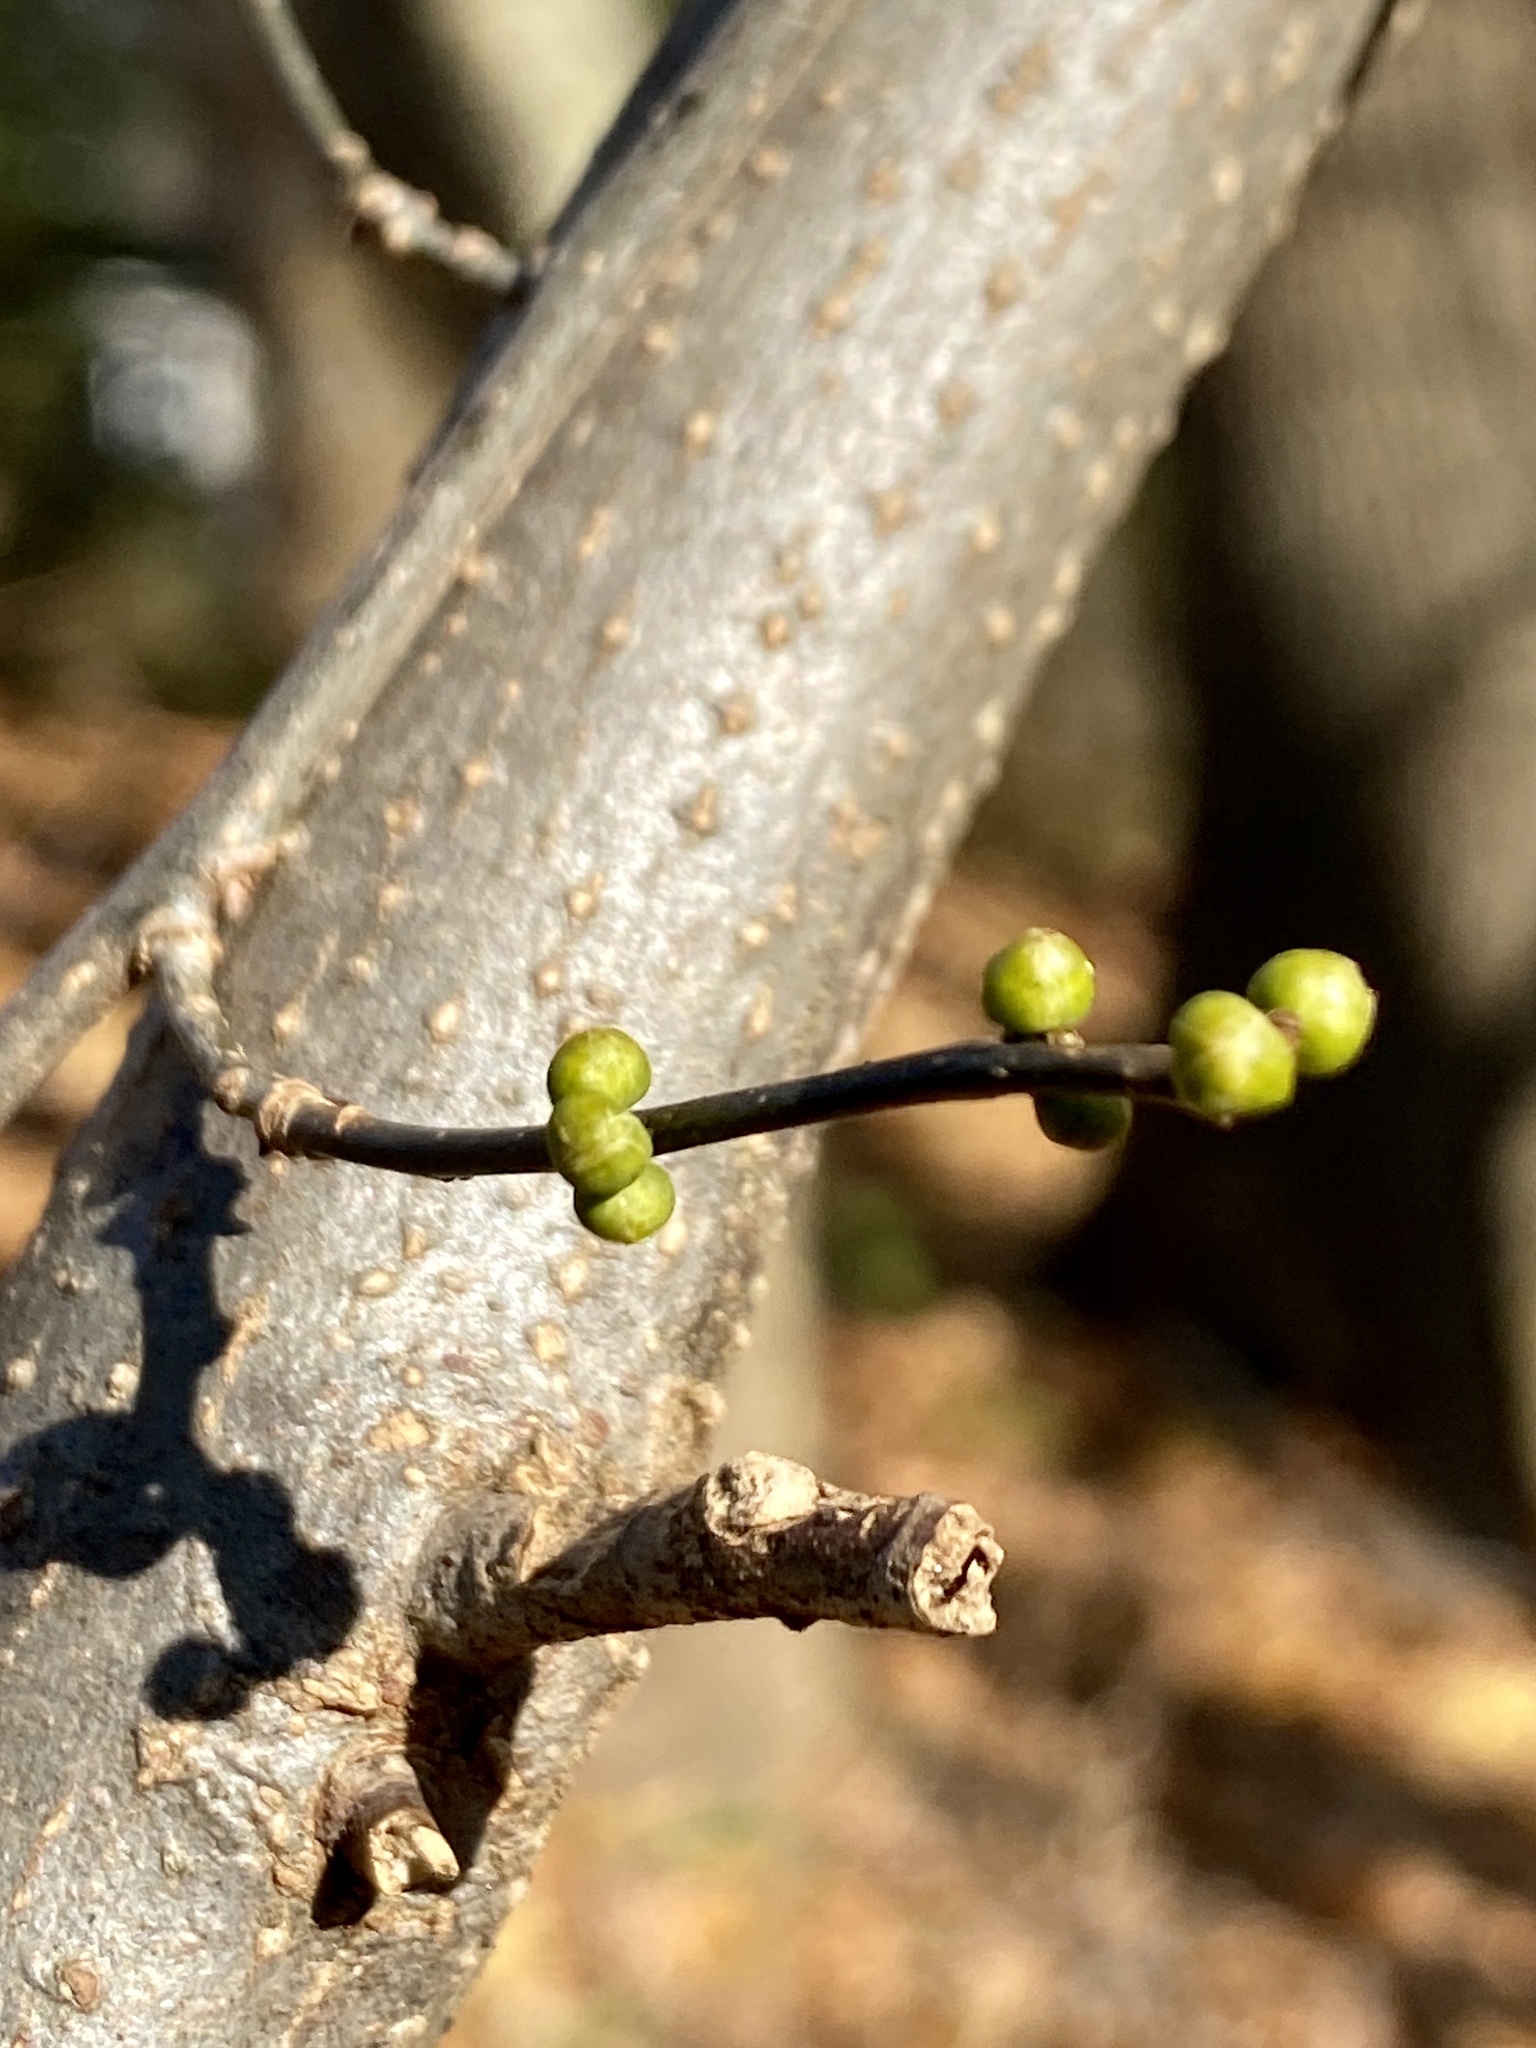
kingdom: Plantae
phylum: Tracheophyta
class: Magnoliopsida
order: Laurales
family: Lauraceae
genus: Lindera
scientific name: Lindera benzoin
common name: Spicebush
